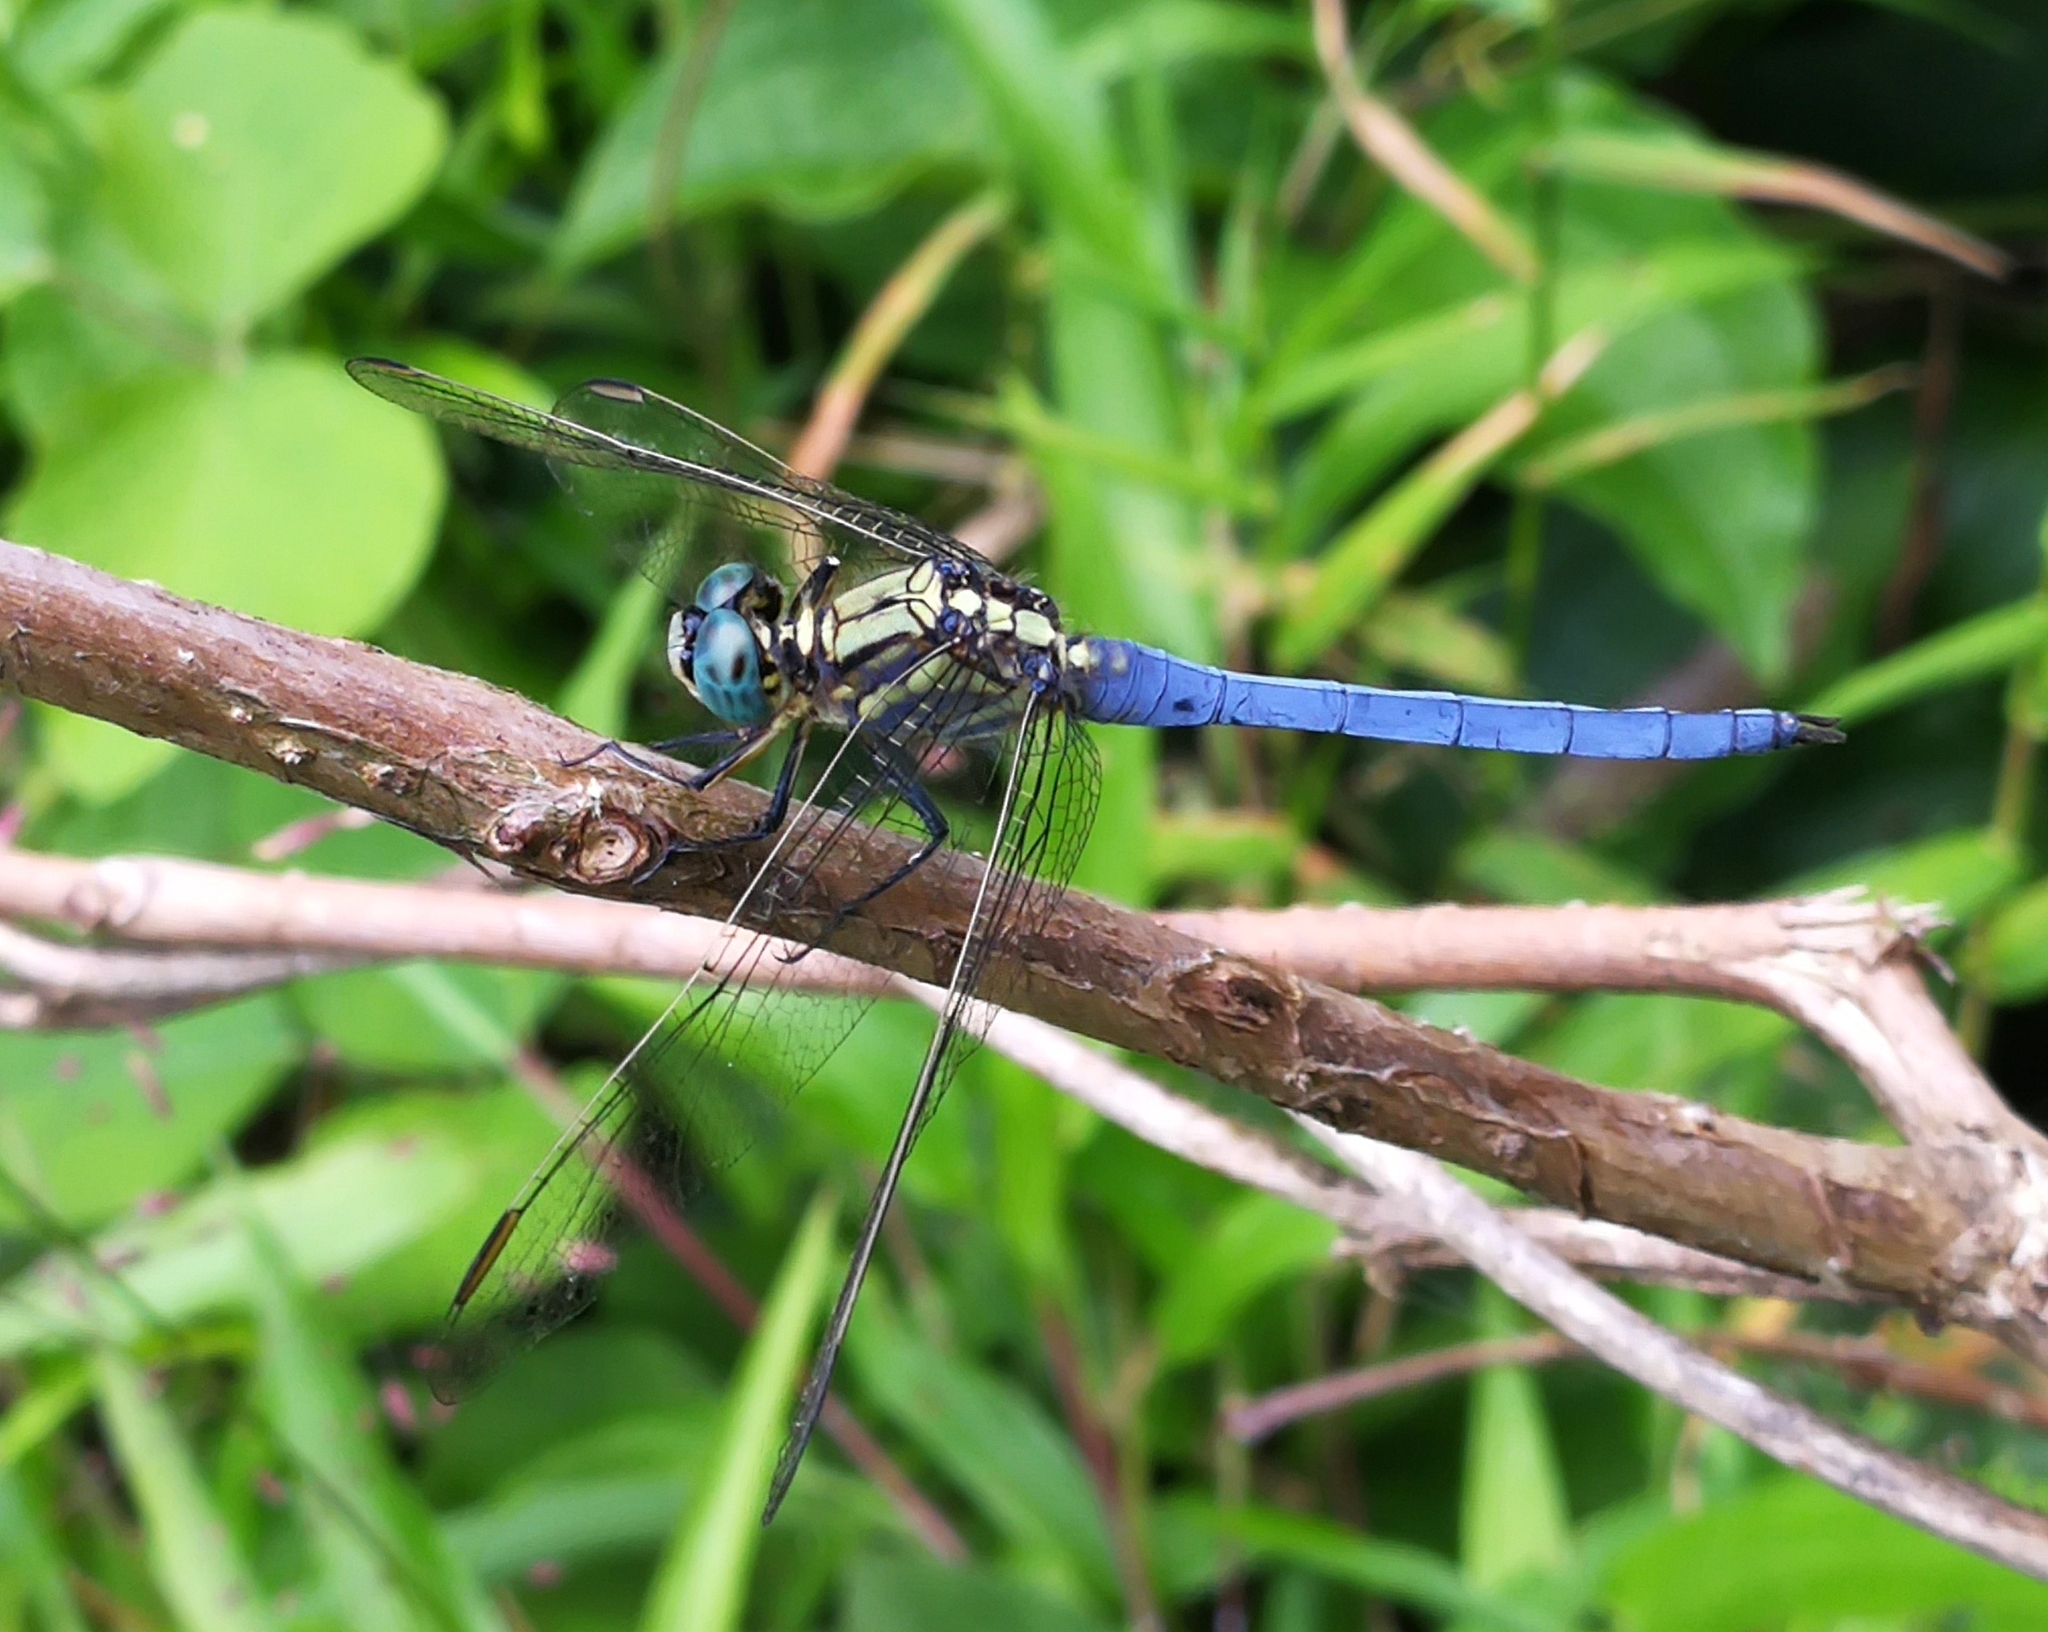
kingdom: Animalia
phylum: Arthropoda
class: Insecta
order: Odonata
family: Libellulidae
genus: Orthetrum
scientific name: Orthetrum luzonicum
